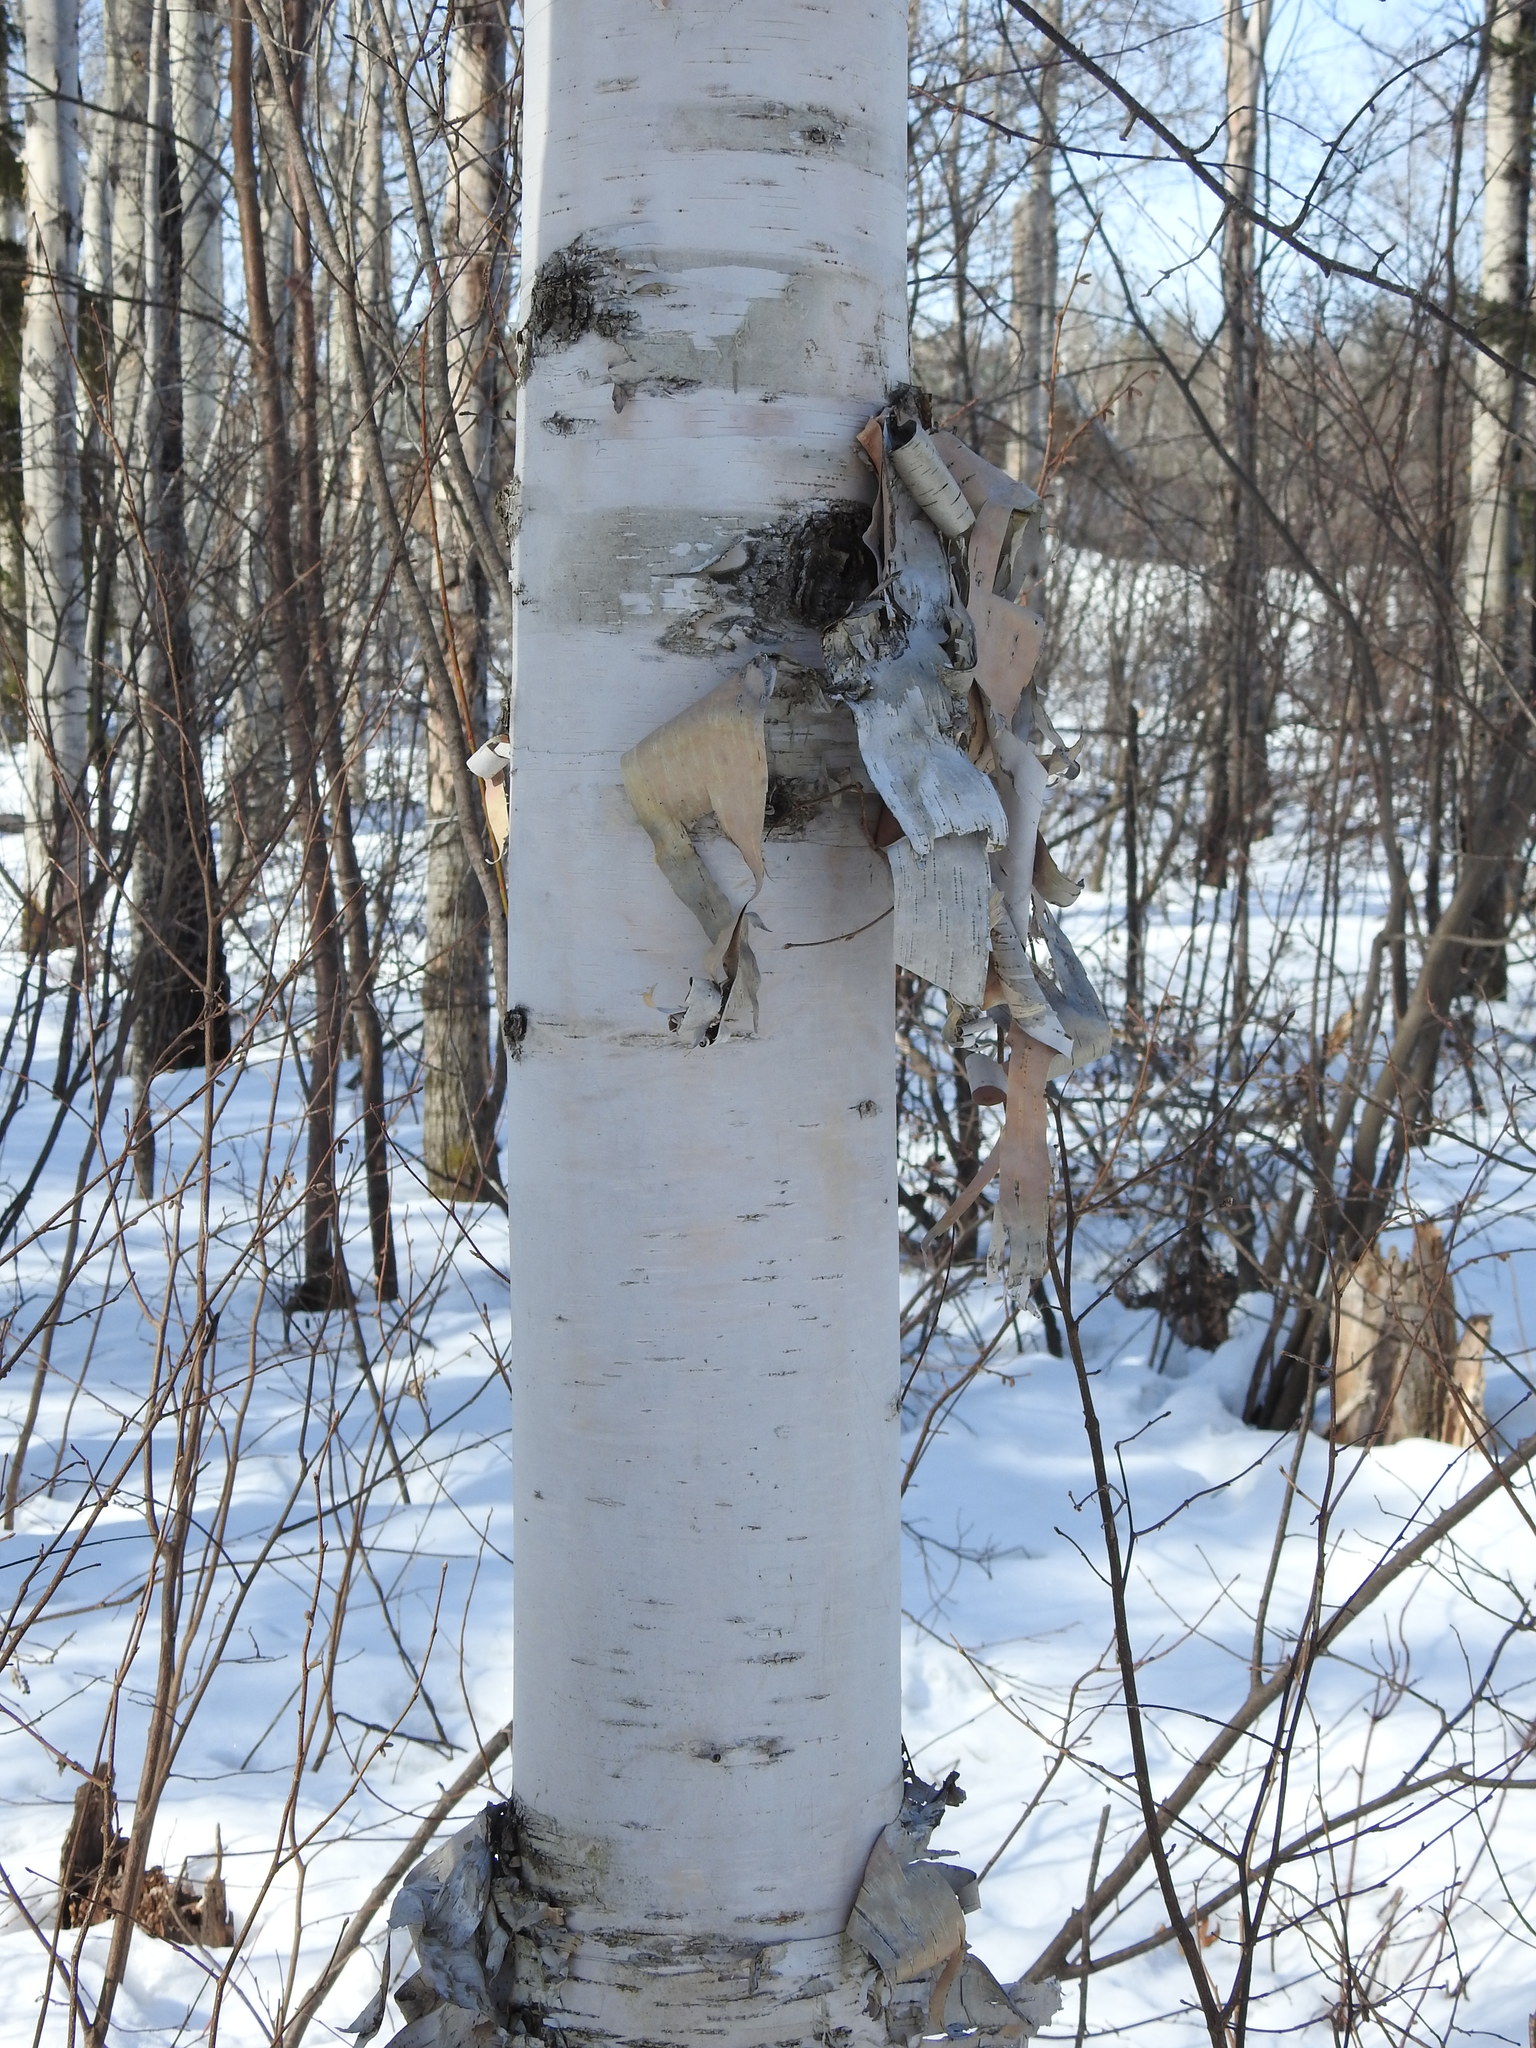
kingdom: Plantae
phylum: Tracheophyta
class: Magnoliopsida
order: Fagales
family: Betulaceae
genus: Betula
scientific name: Betula papyrifera
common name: Paper birch
